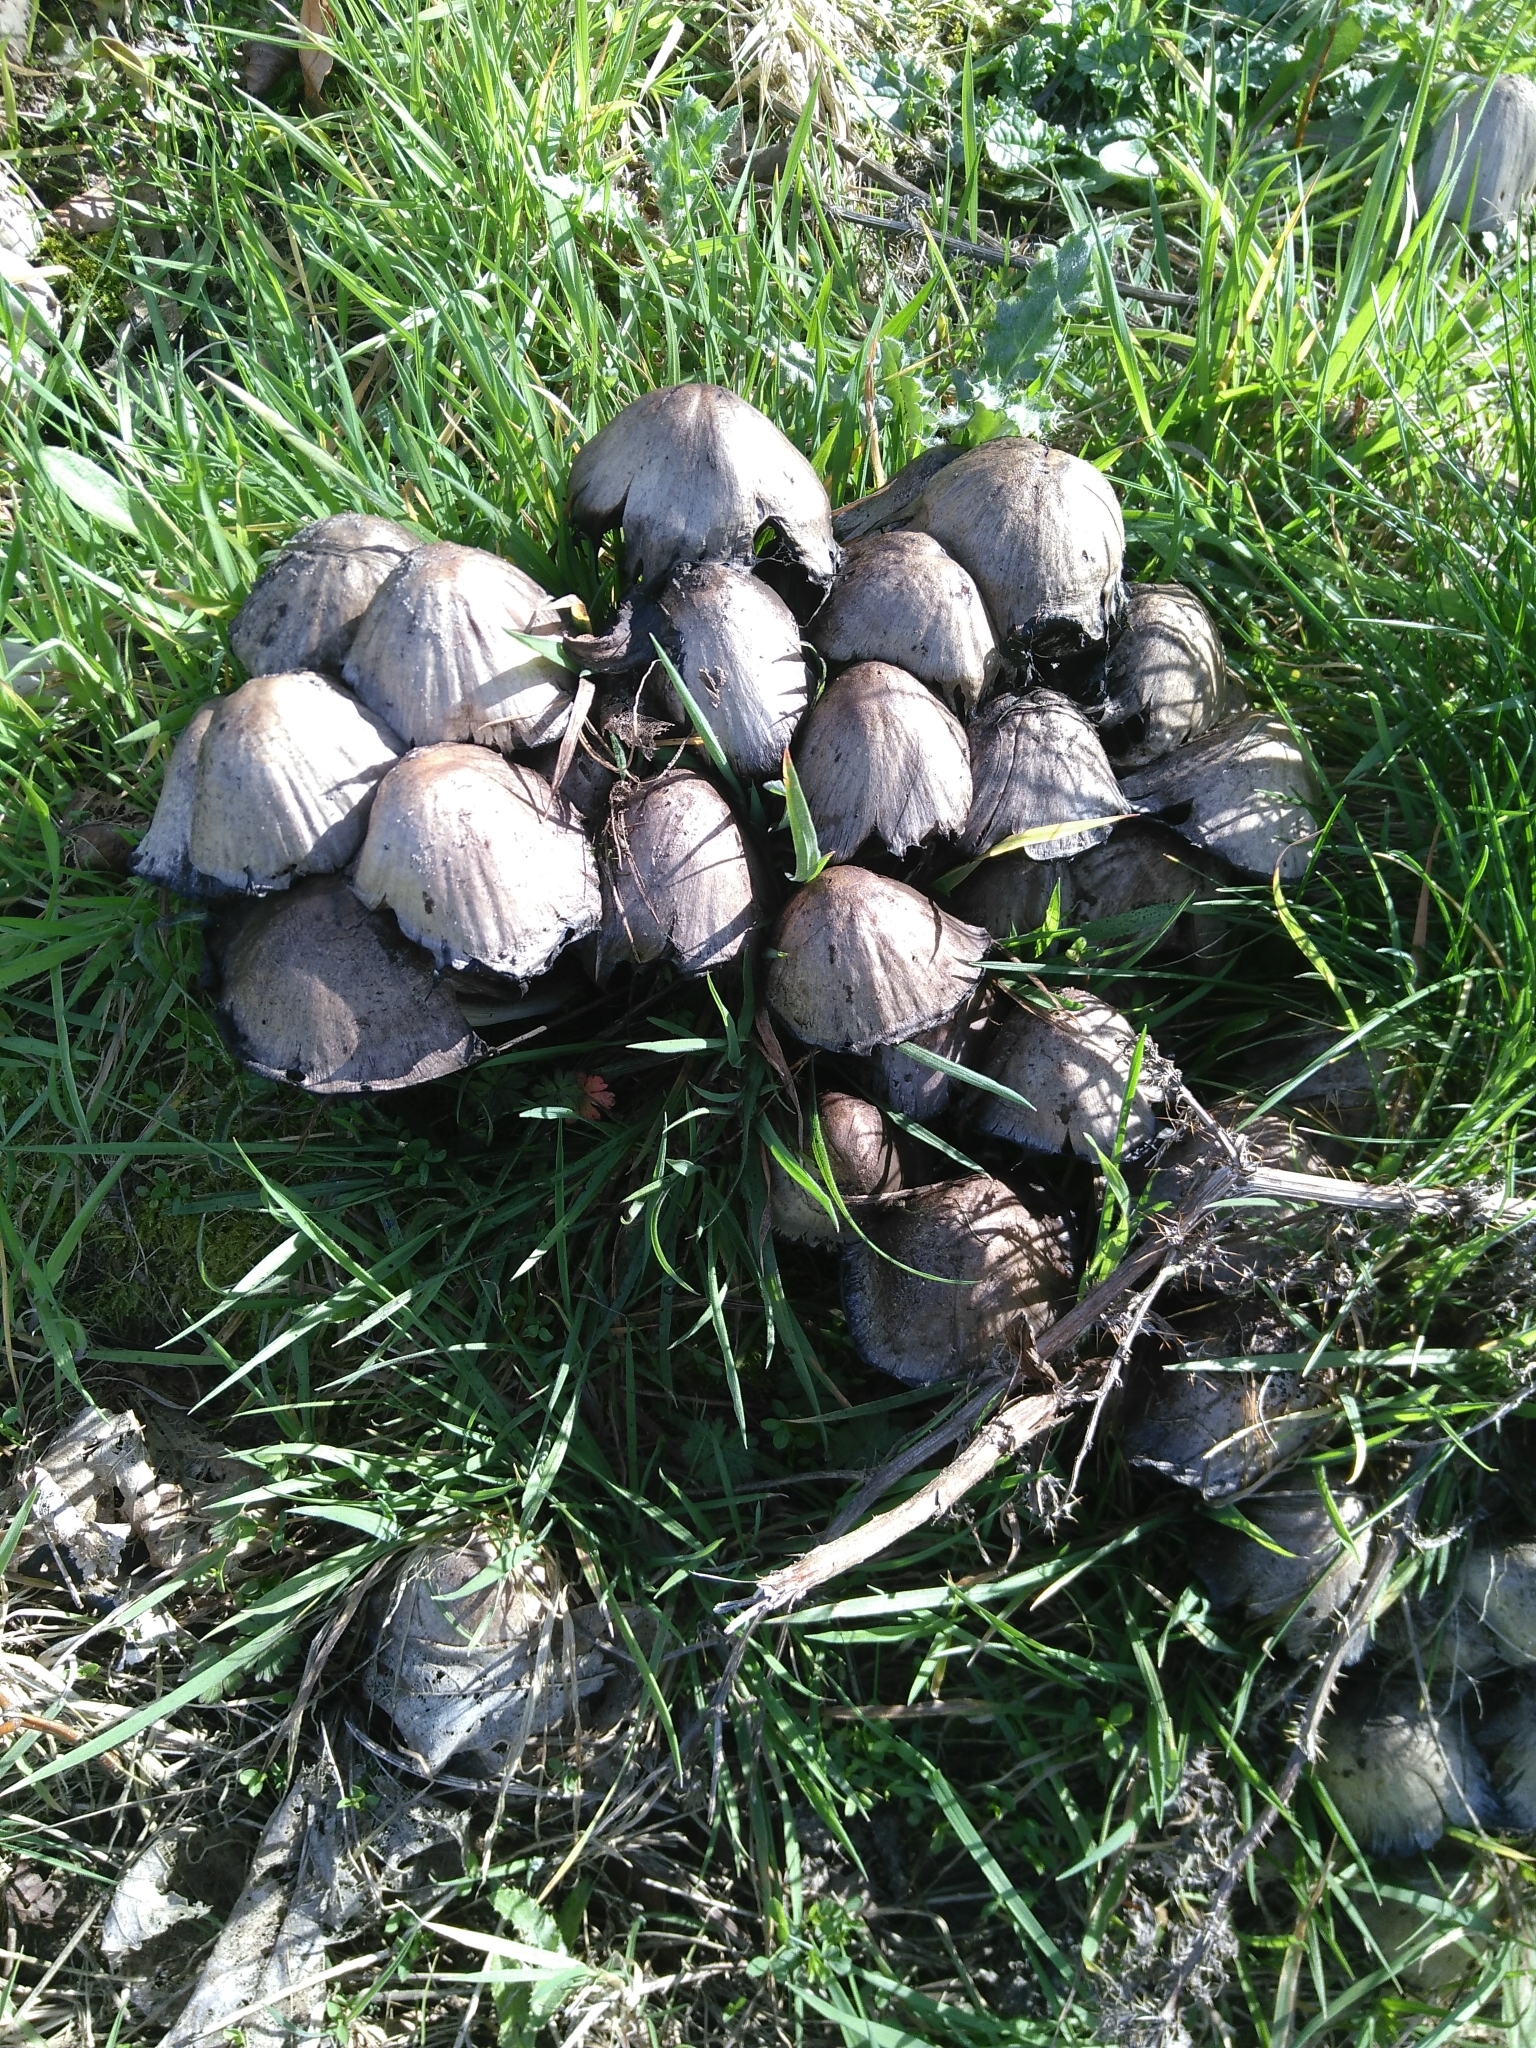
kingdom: Fungi
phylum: Basidiomycota
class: Agaricomycetes
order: Agaricales
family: Psathyrellaceae
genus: Coprinopsis
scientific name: Coprinopsis atramentaria
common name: Common ink-cap
